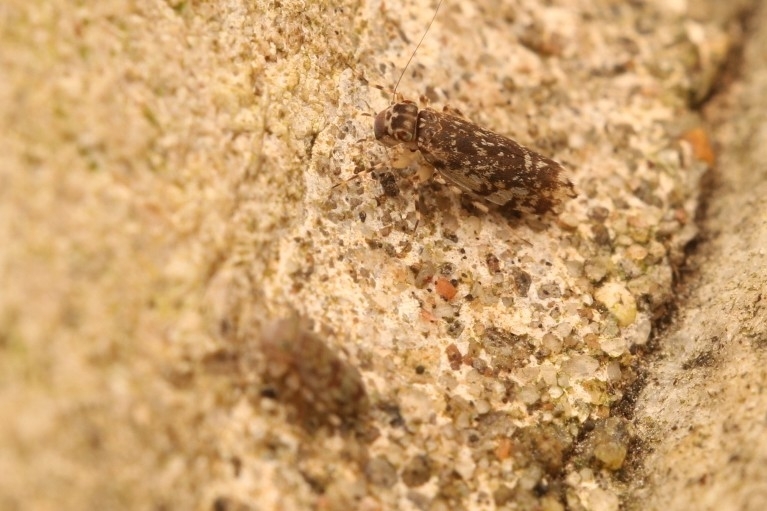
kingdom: Animalia
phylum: Arthropoda
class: Insecta
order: Psocodea
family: Amphientomidae
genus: Stimulopalpus
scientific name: Stimulopalpus japonicus
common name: Tropical bark louse
